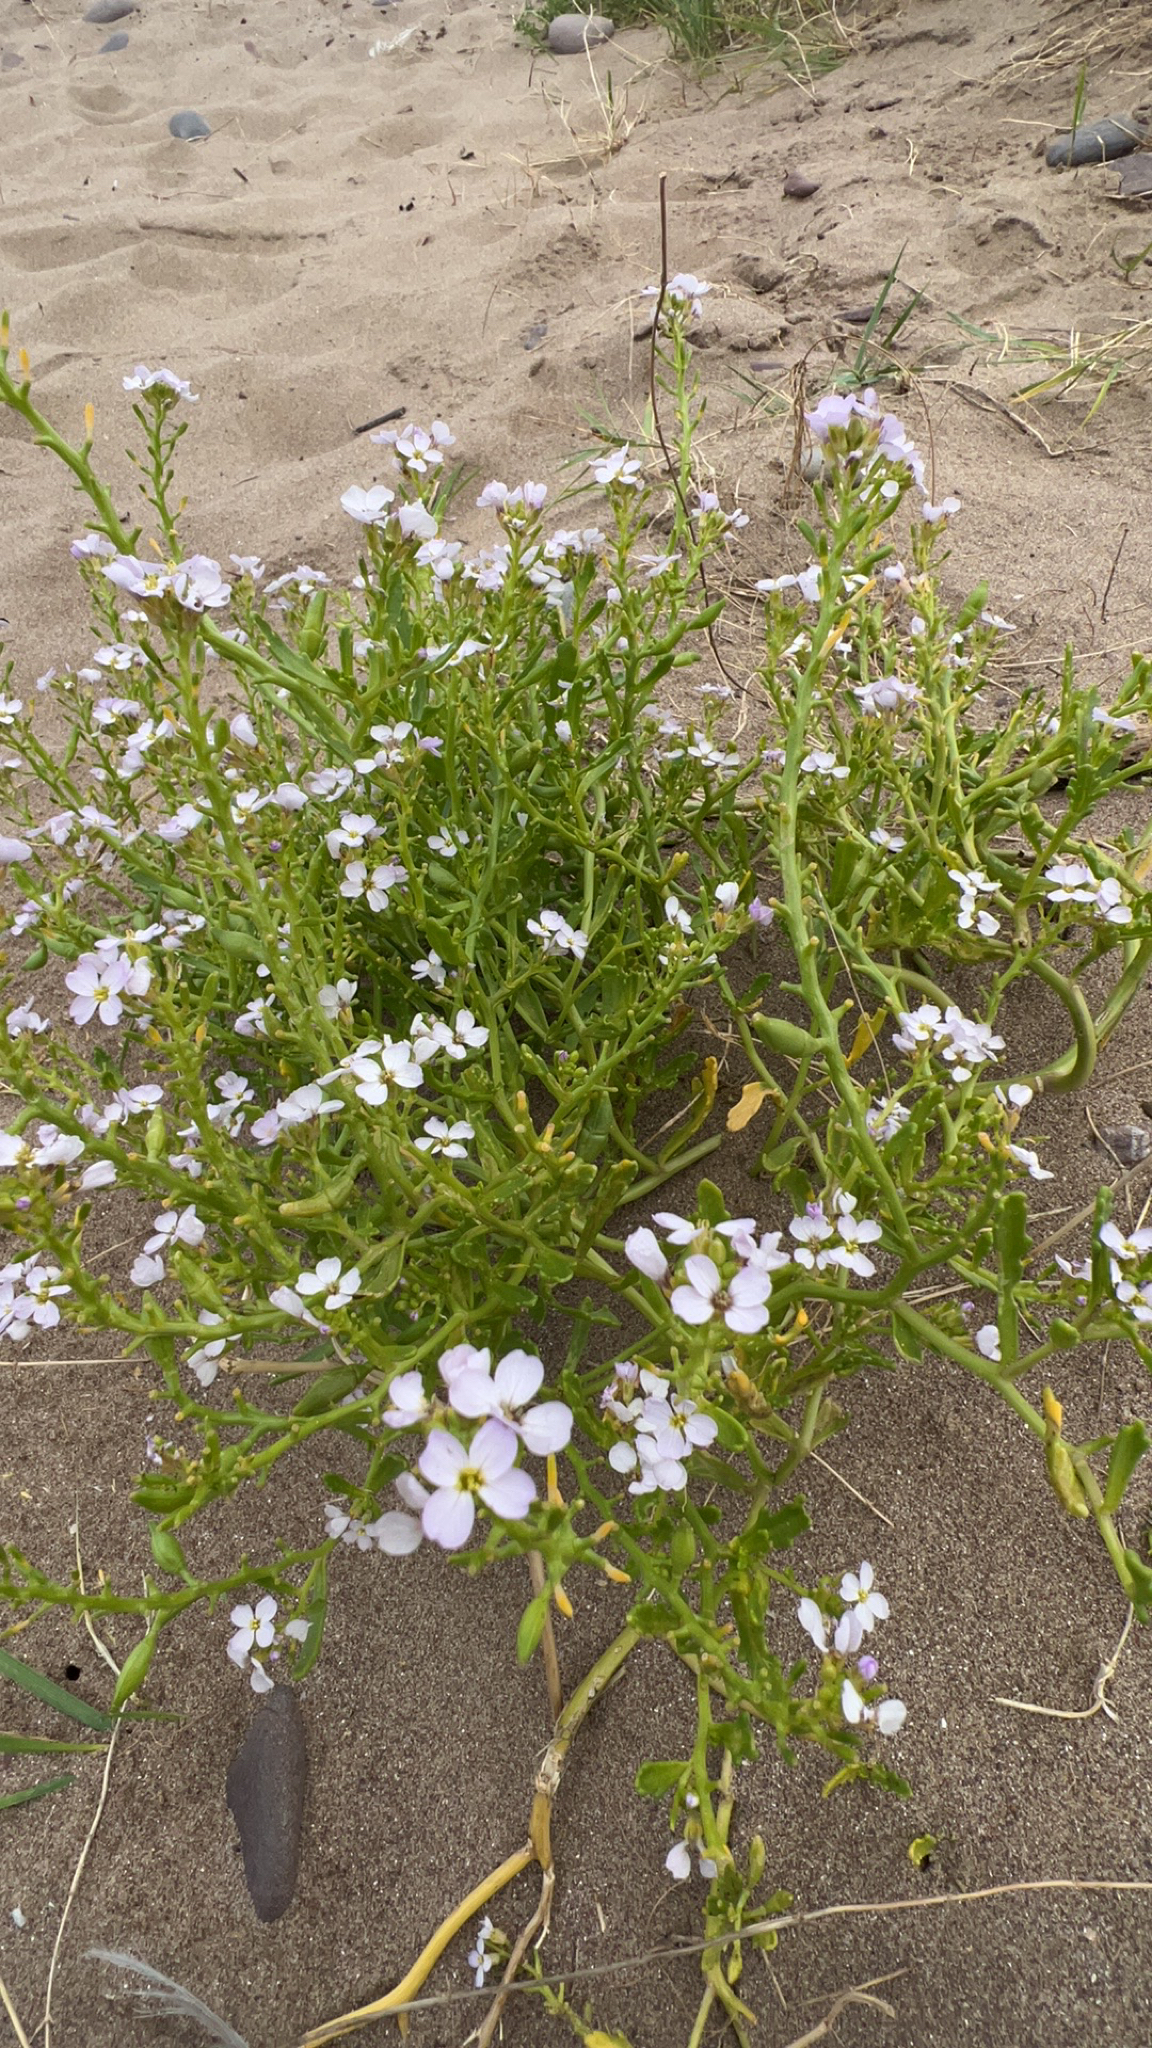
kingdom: Plantae
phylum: Tracheophyta
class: Magnoliopsida
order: Brassicales
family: Brassicaceae
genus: Cakile
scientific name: Cakile maritima
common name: Sea rocket
